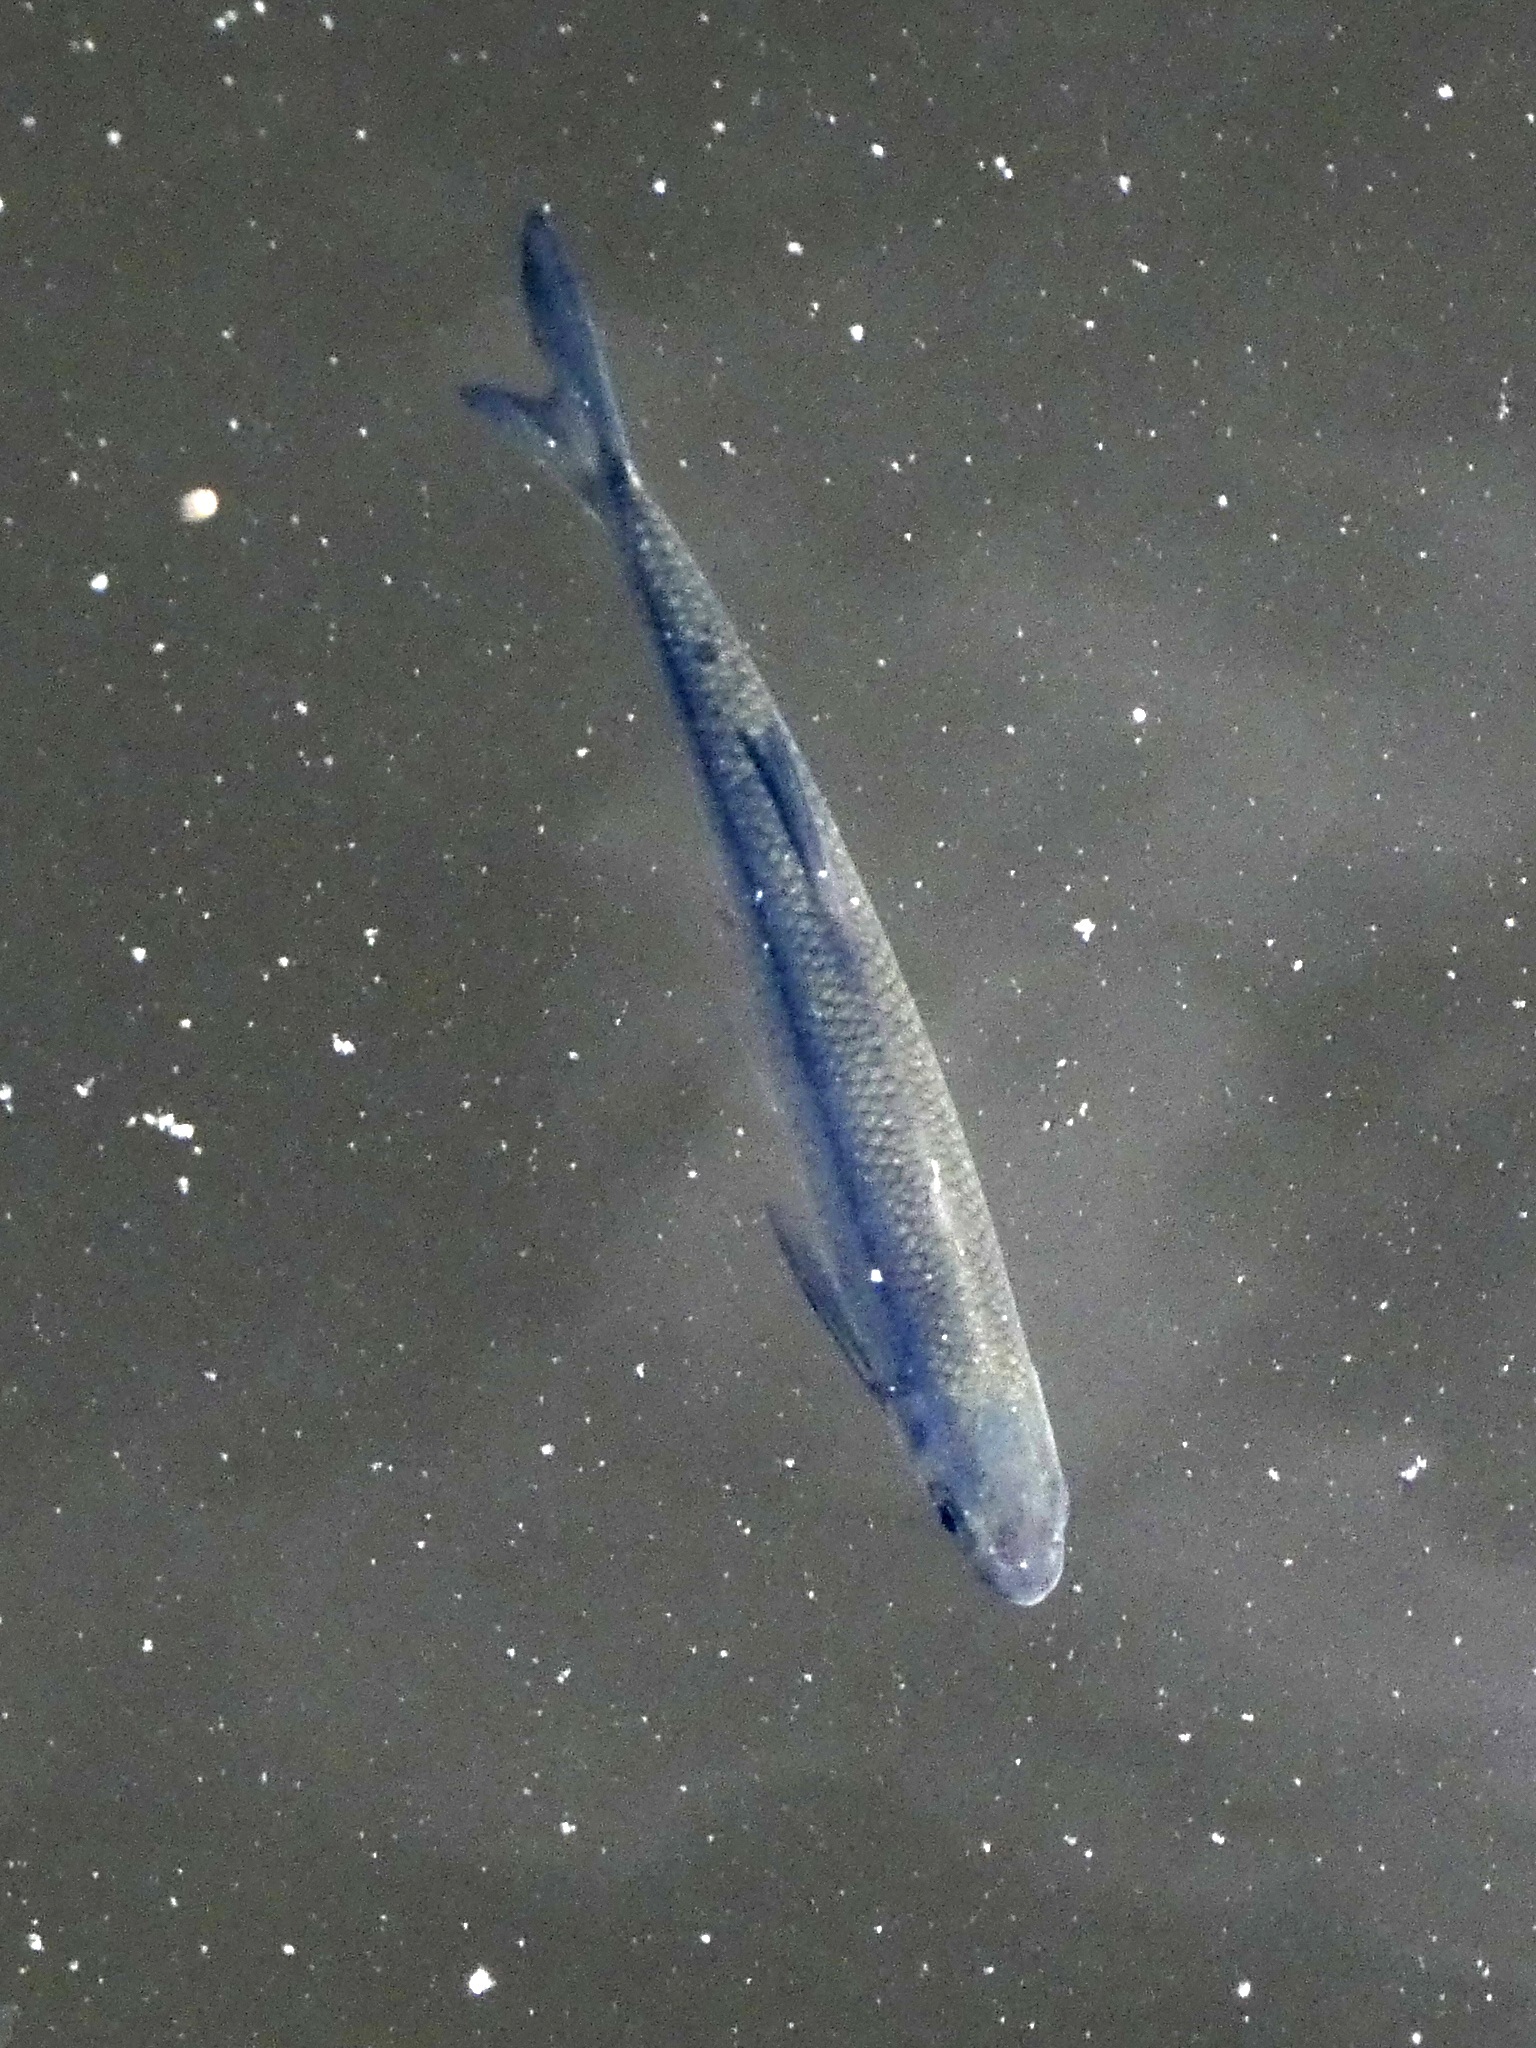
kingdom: Animalia
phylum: Chordata
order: Cypriniformes
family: Cyprinidae
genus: Alburnus
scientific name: Alburnus alburnus
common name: Bleak
